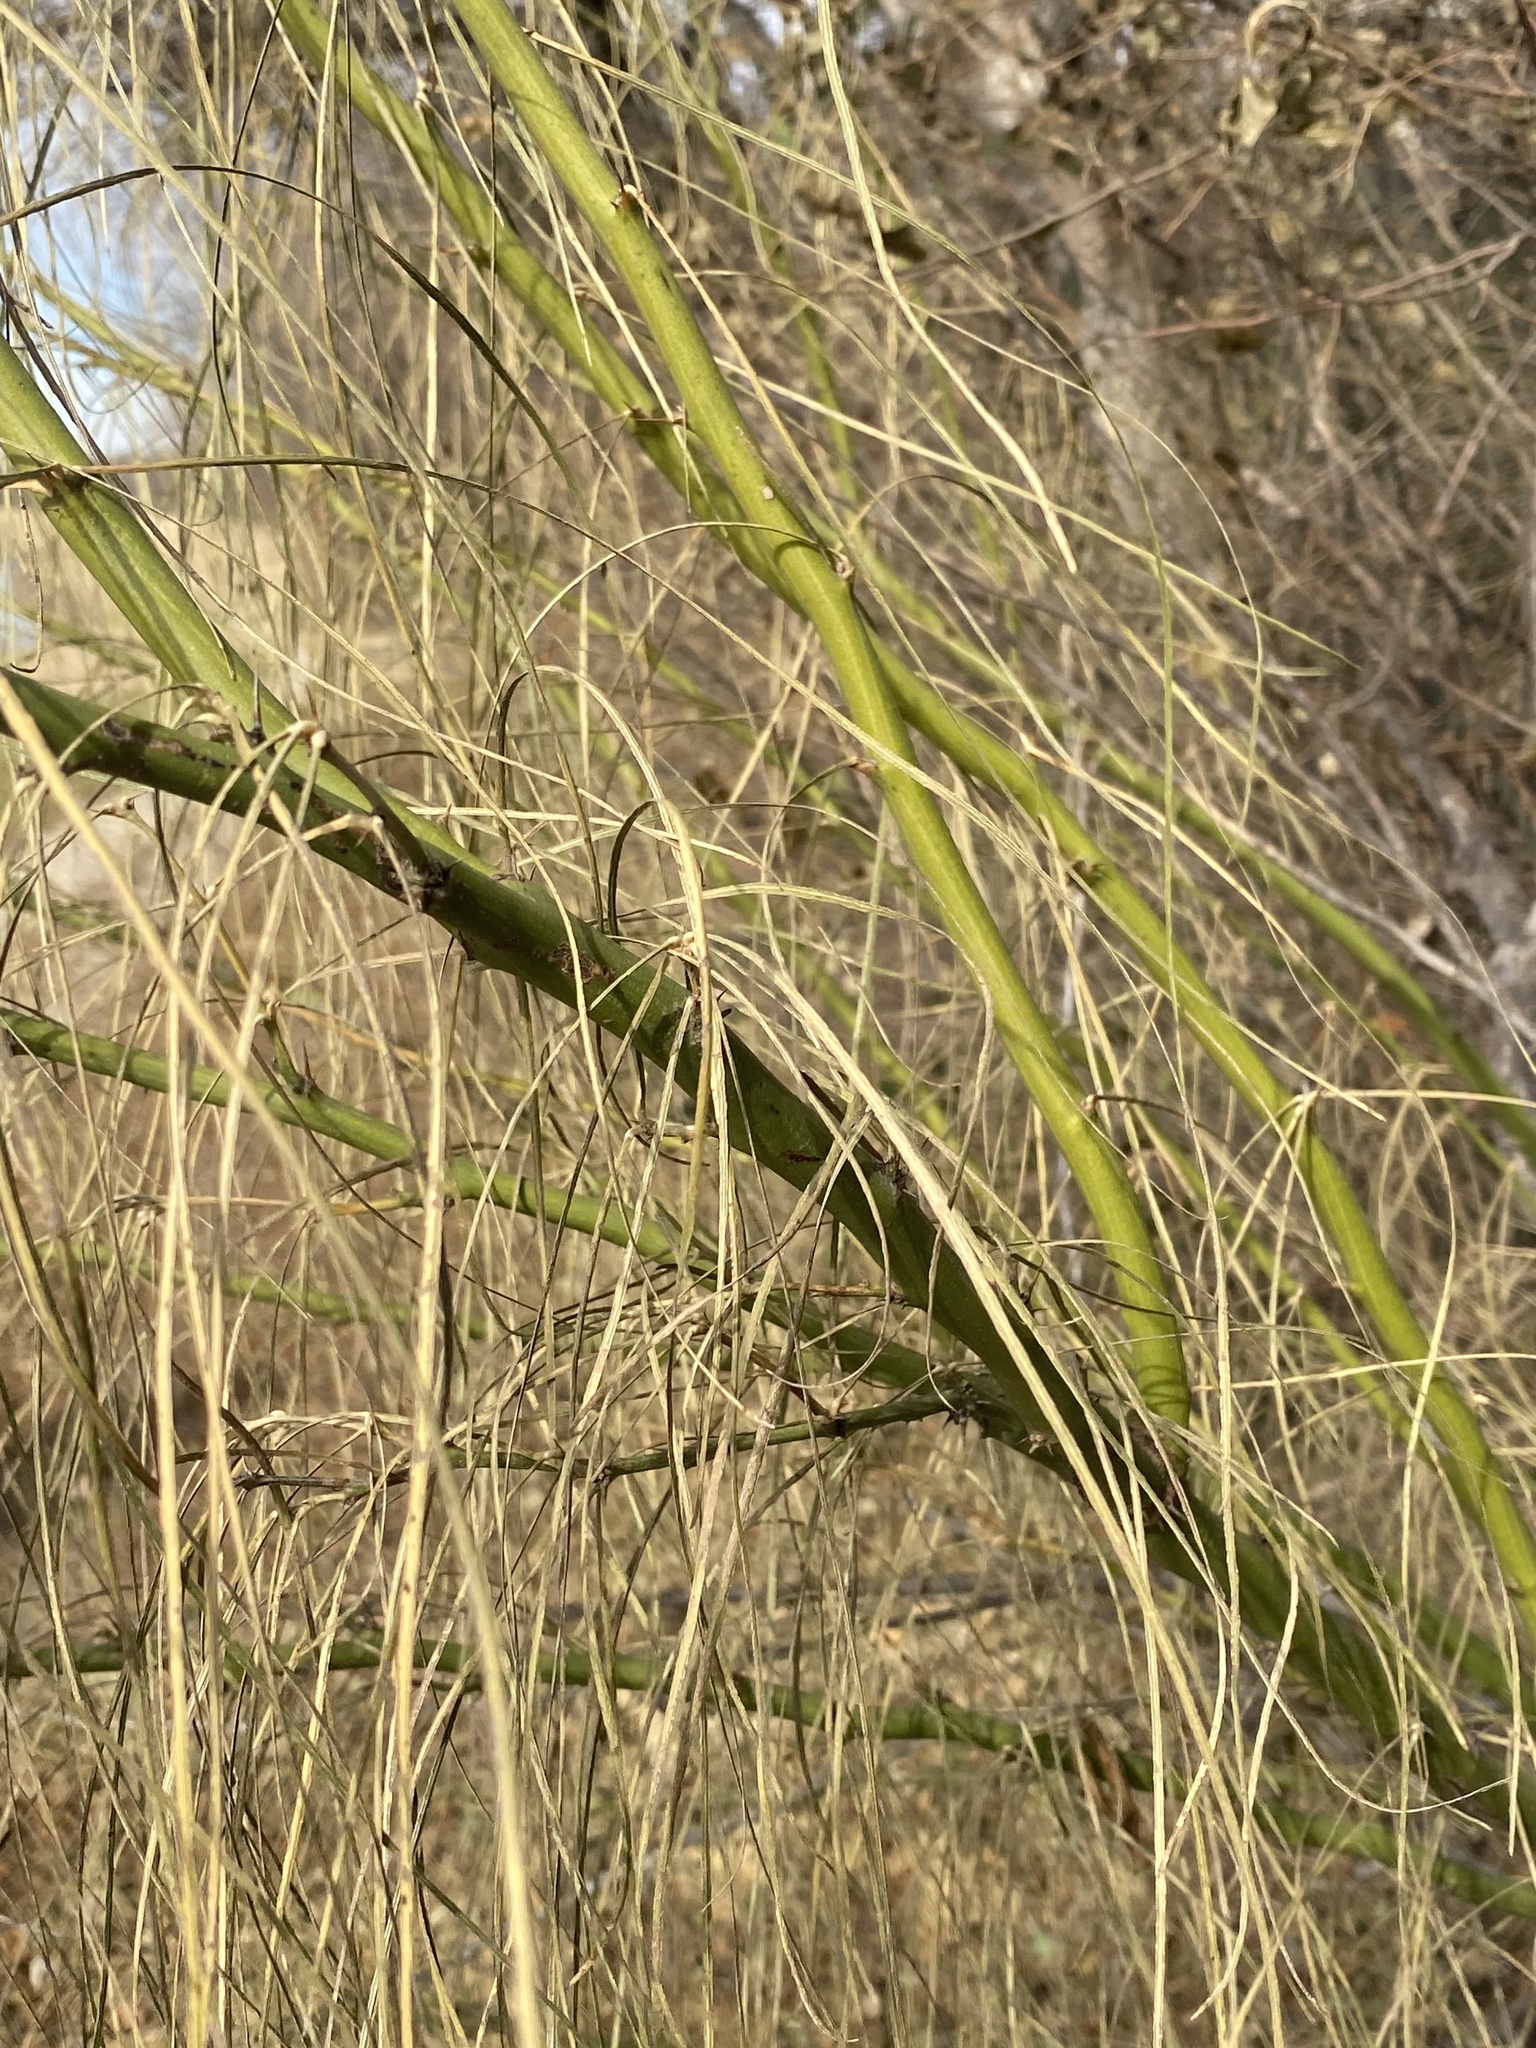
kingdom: Plantae
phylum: Tracheophyta
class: Magnoliopsida
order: Fabales
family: Fabaceae
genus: Parkinsonia
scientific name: Parkinsonia aculeata
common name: Jerusalem thorn
